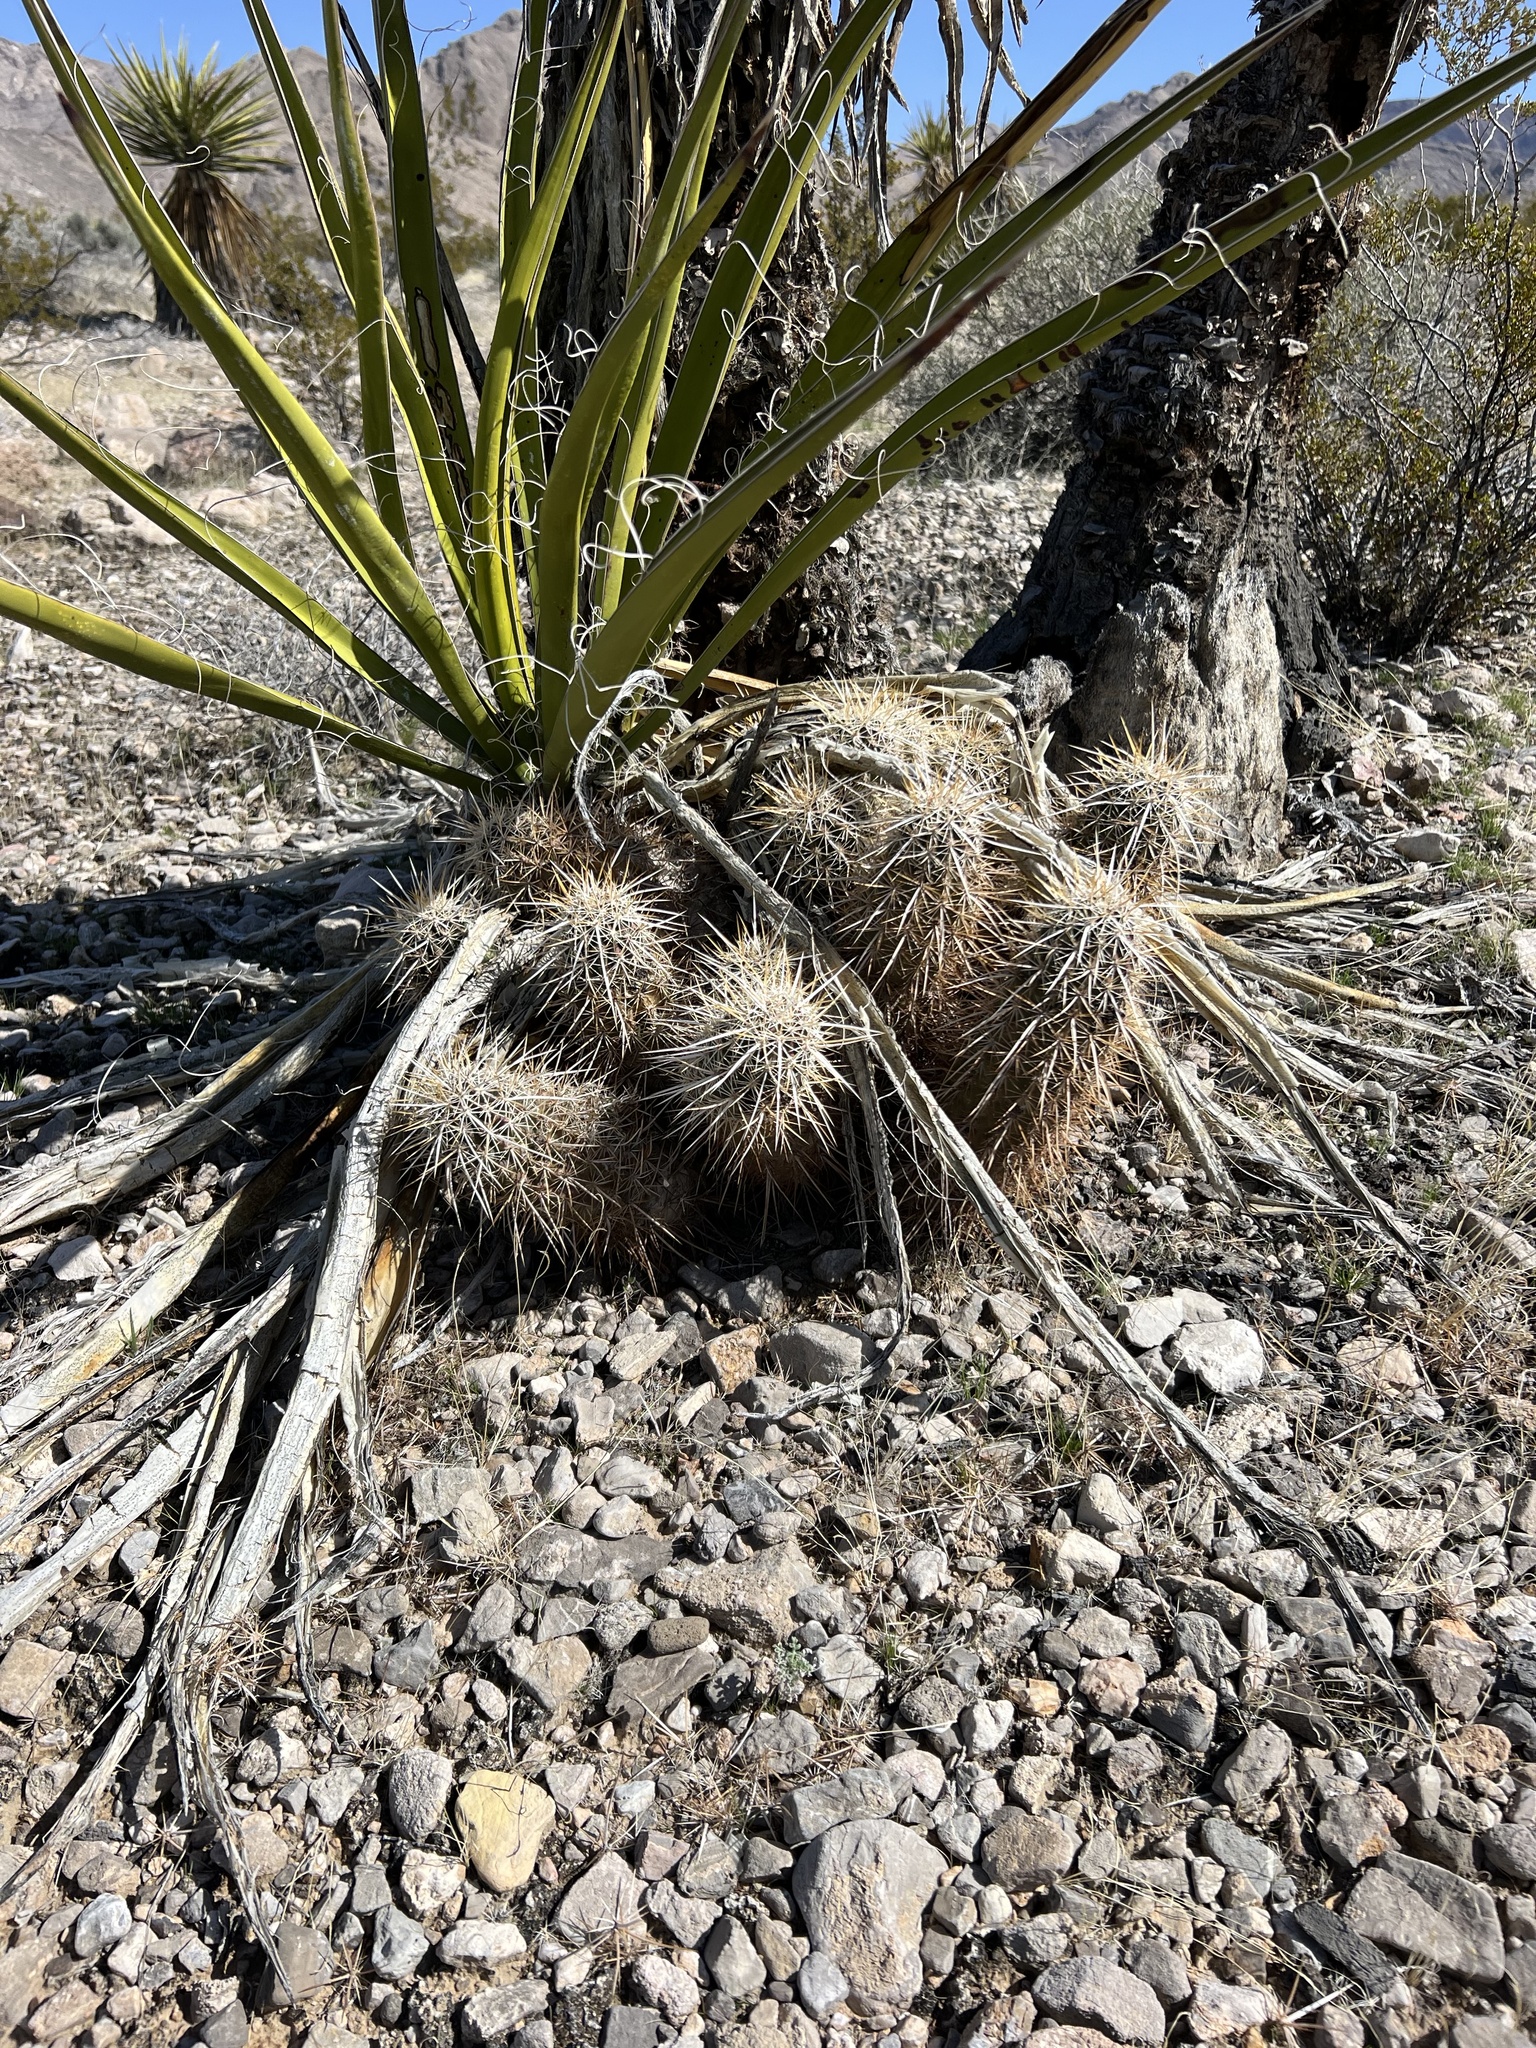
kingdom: Plantae
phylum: Tracheophyta
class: Magnoliopsida
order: Caryophyllales
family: Cactaceae
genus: Echinocereus
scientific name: Echinocereus engelmannii
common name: Engelmann's hedgehog cactus
